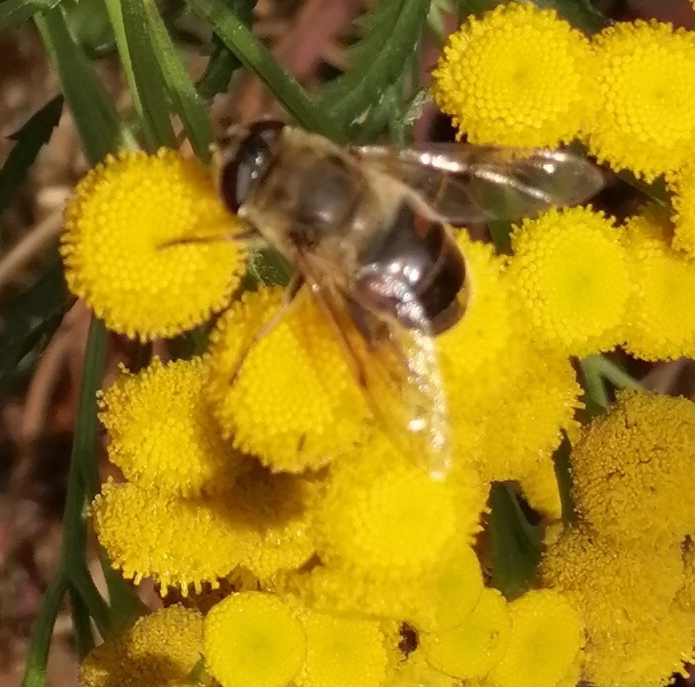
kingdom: Animalia
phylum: Arthropoda
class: Insecta
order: Diptera
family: Syrphidae
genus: Eristalis
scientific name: Eristalis tenax
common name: Drone fly
